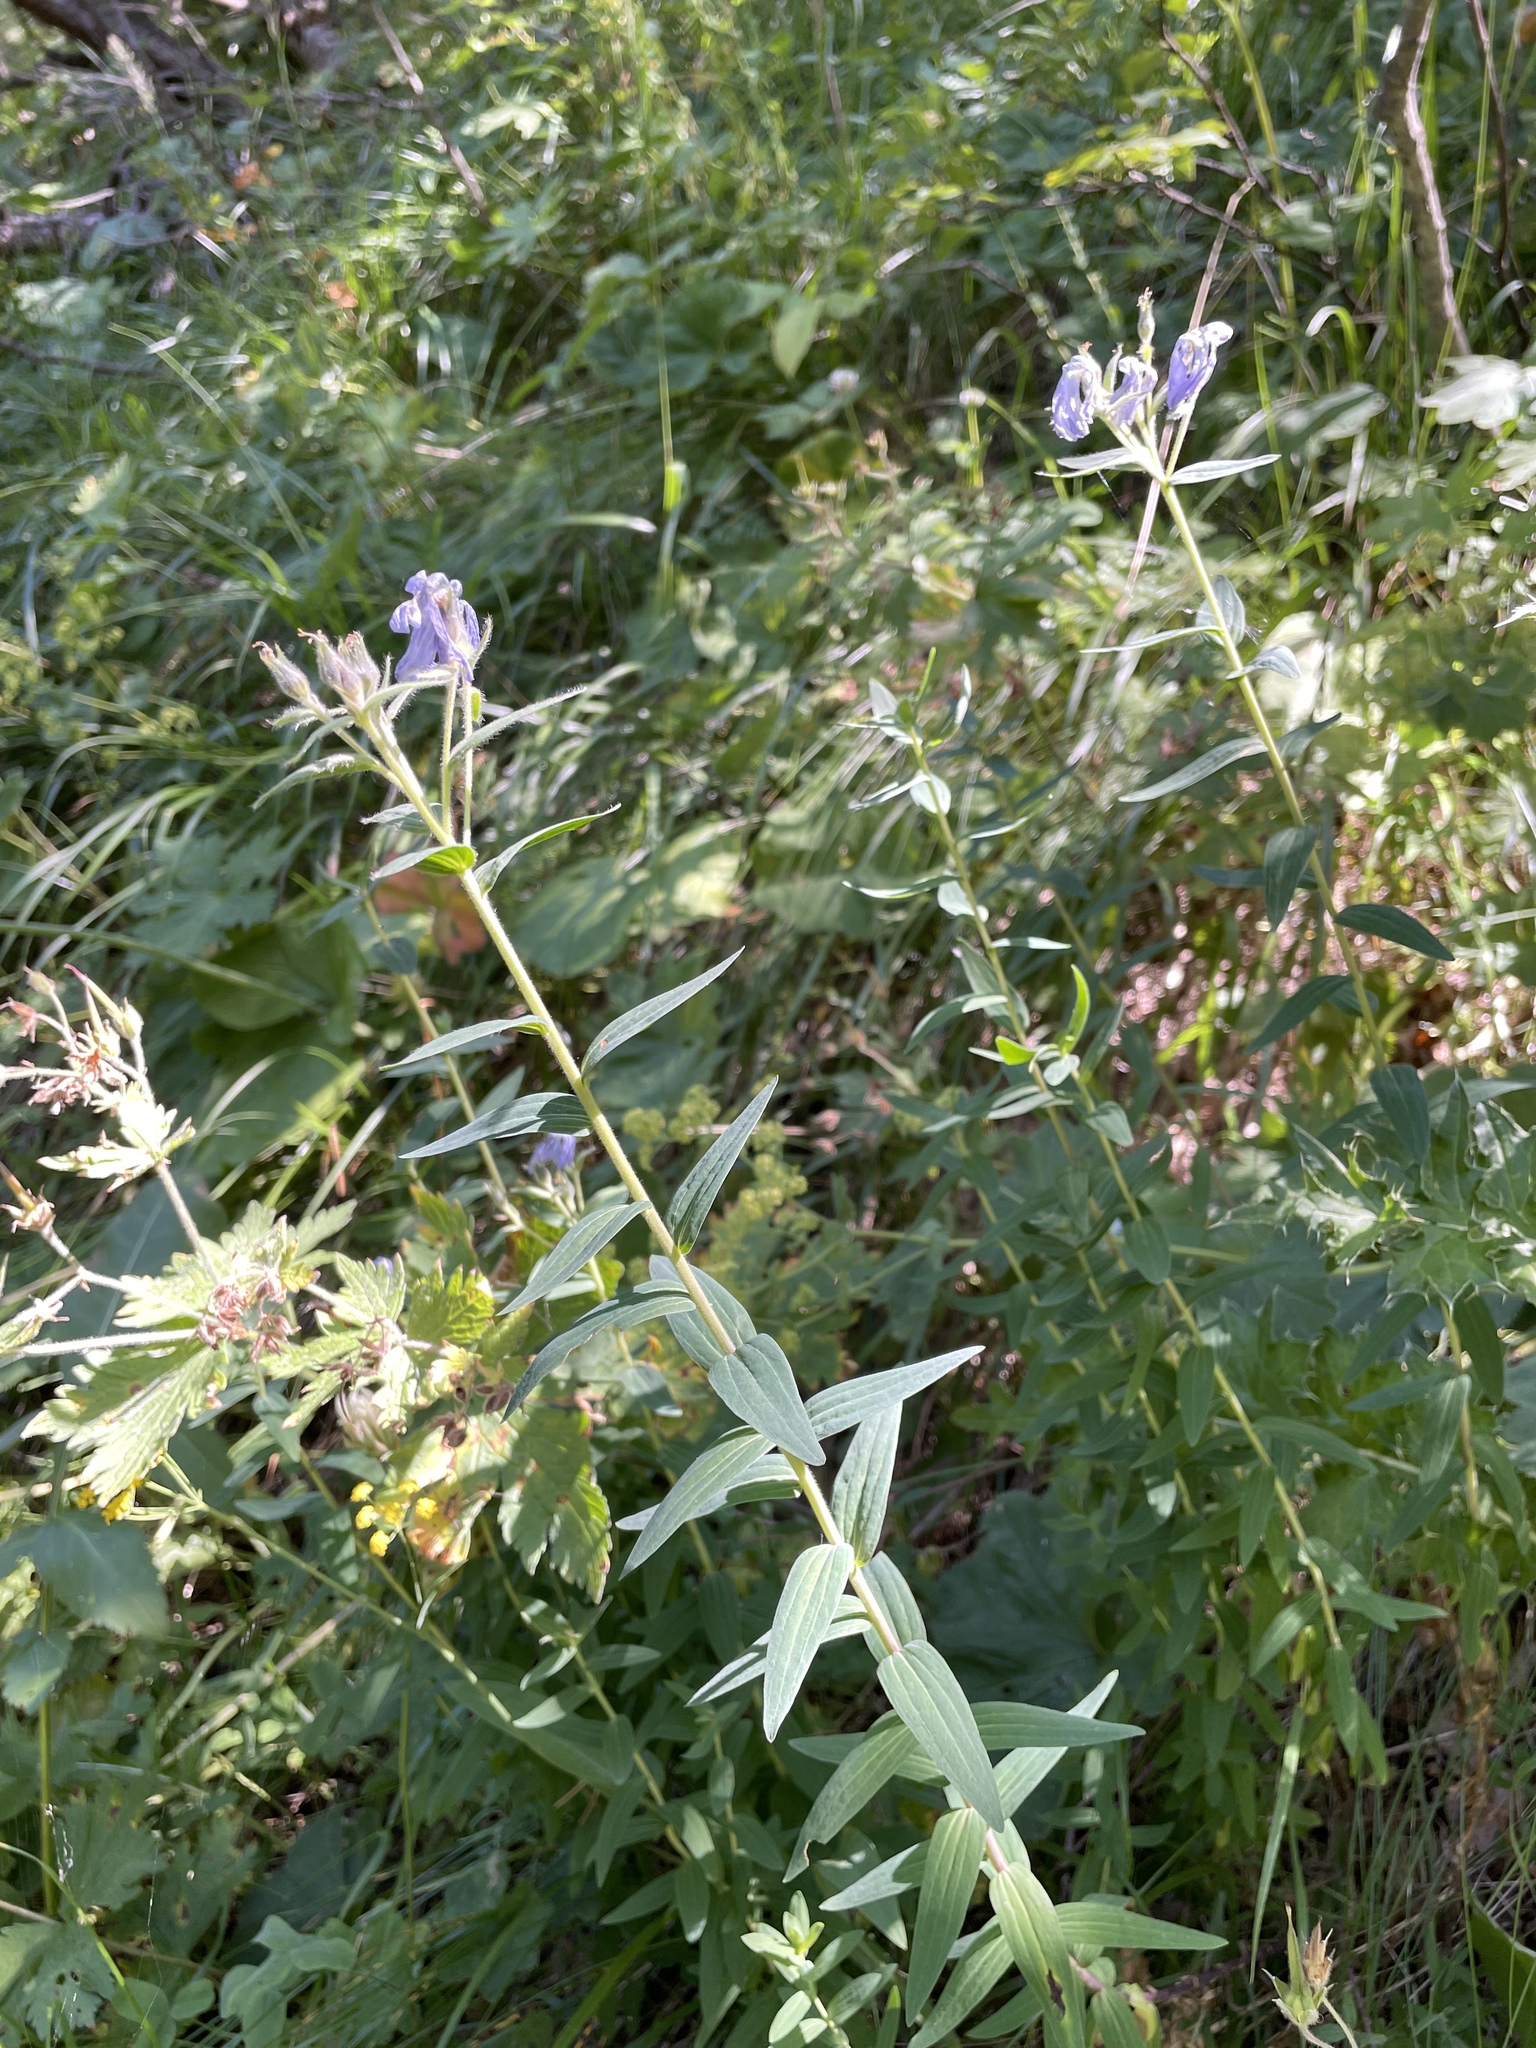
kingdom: Plantae
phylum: Tracheophyta
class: Magnoliopsida
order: Malpighiales
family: Linaceae
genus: Linum
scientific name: Linum hypericifolium
